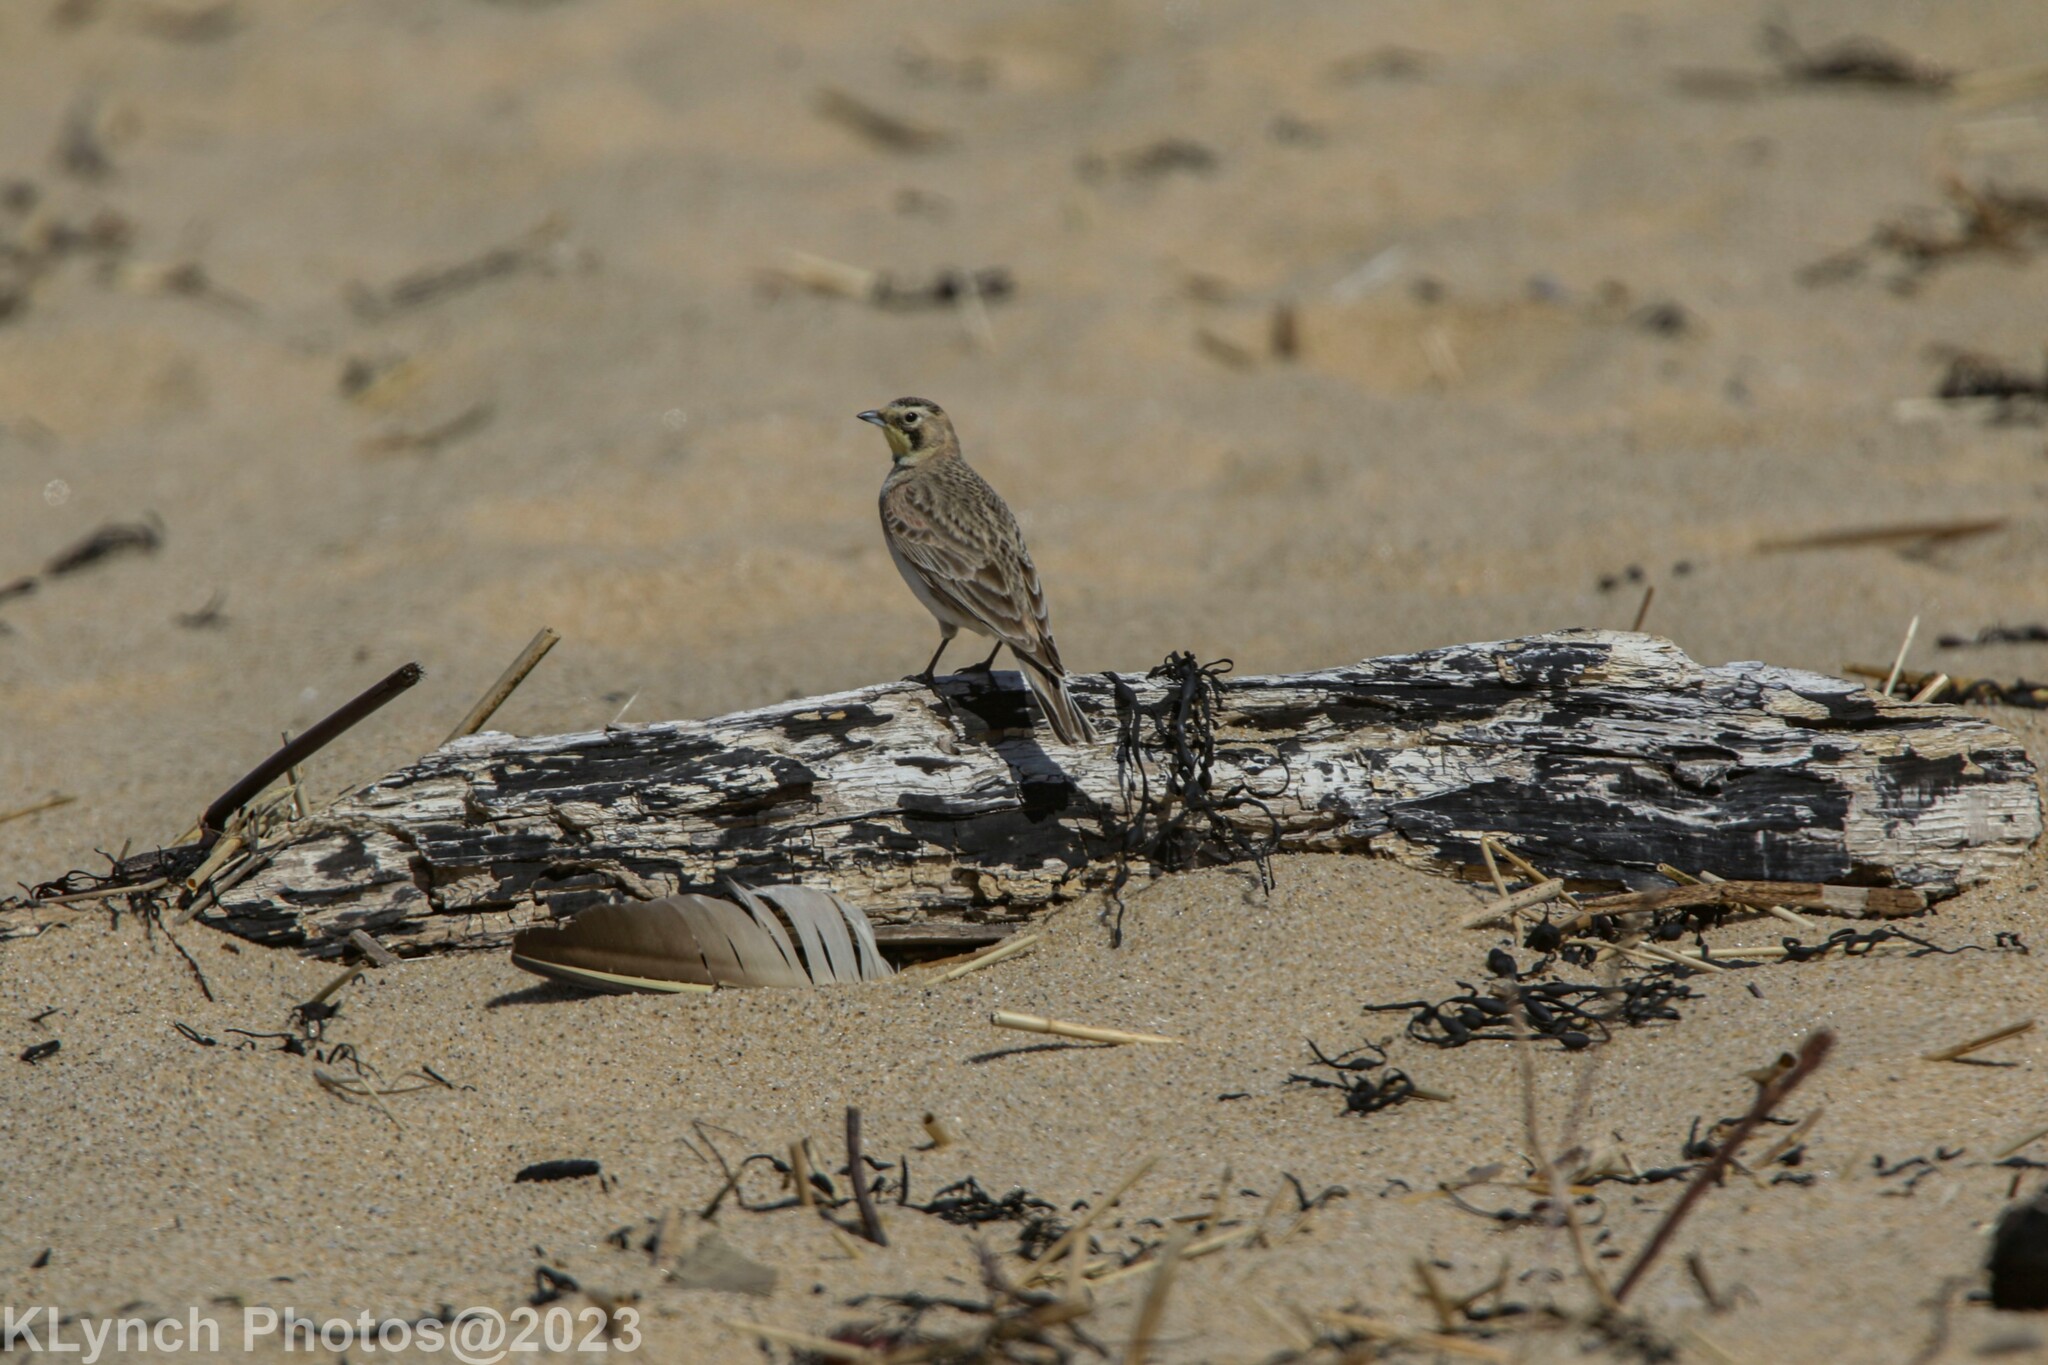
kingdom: Animalia
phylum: Chordata
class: Aves
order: Passeriformes
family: Alaudidae
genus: Eremophila
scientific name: Eremophila alpestris
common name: Horned lark
